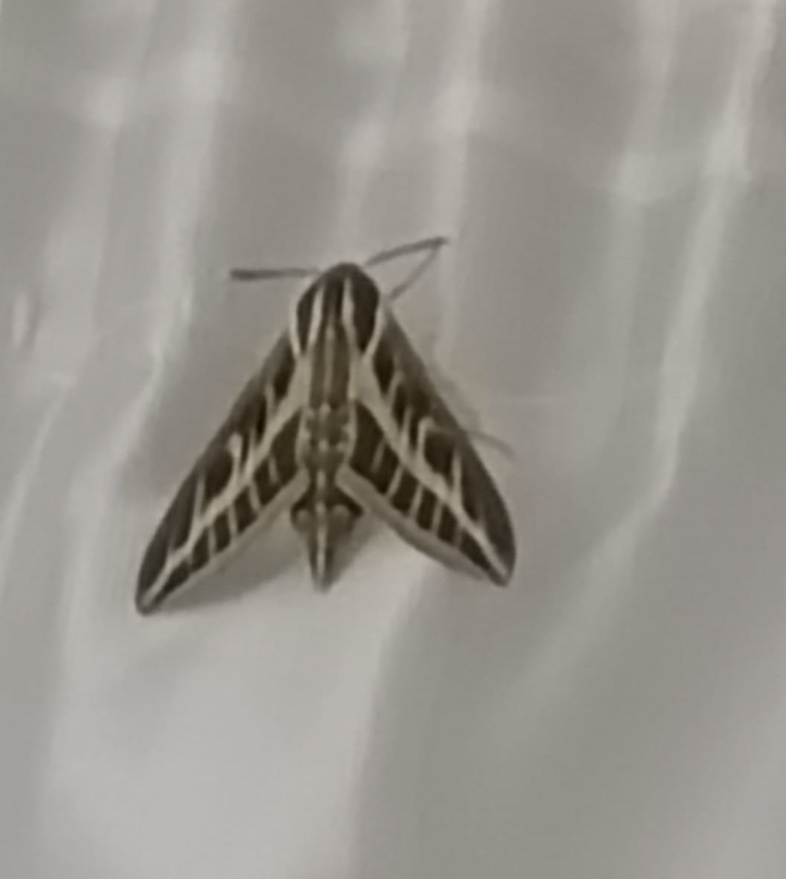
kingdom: Animalia
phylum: Arthropoda
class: Insecta
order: Lepidoptera
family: Sphingidae
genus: Hyles
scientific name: Hyles livornica
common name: Striped hawk-moth
